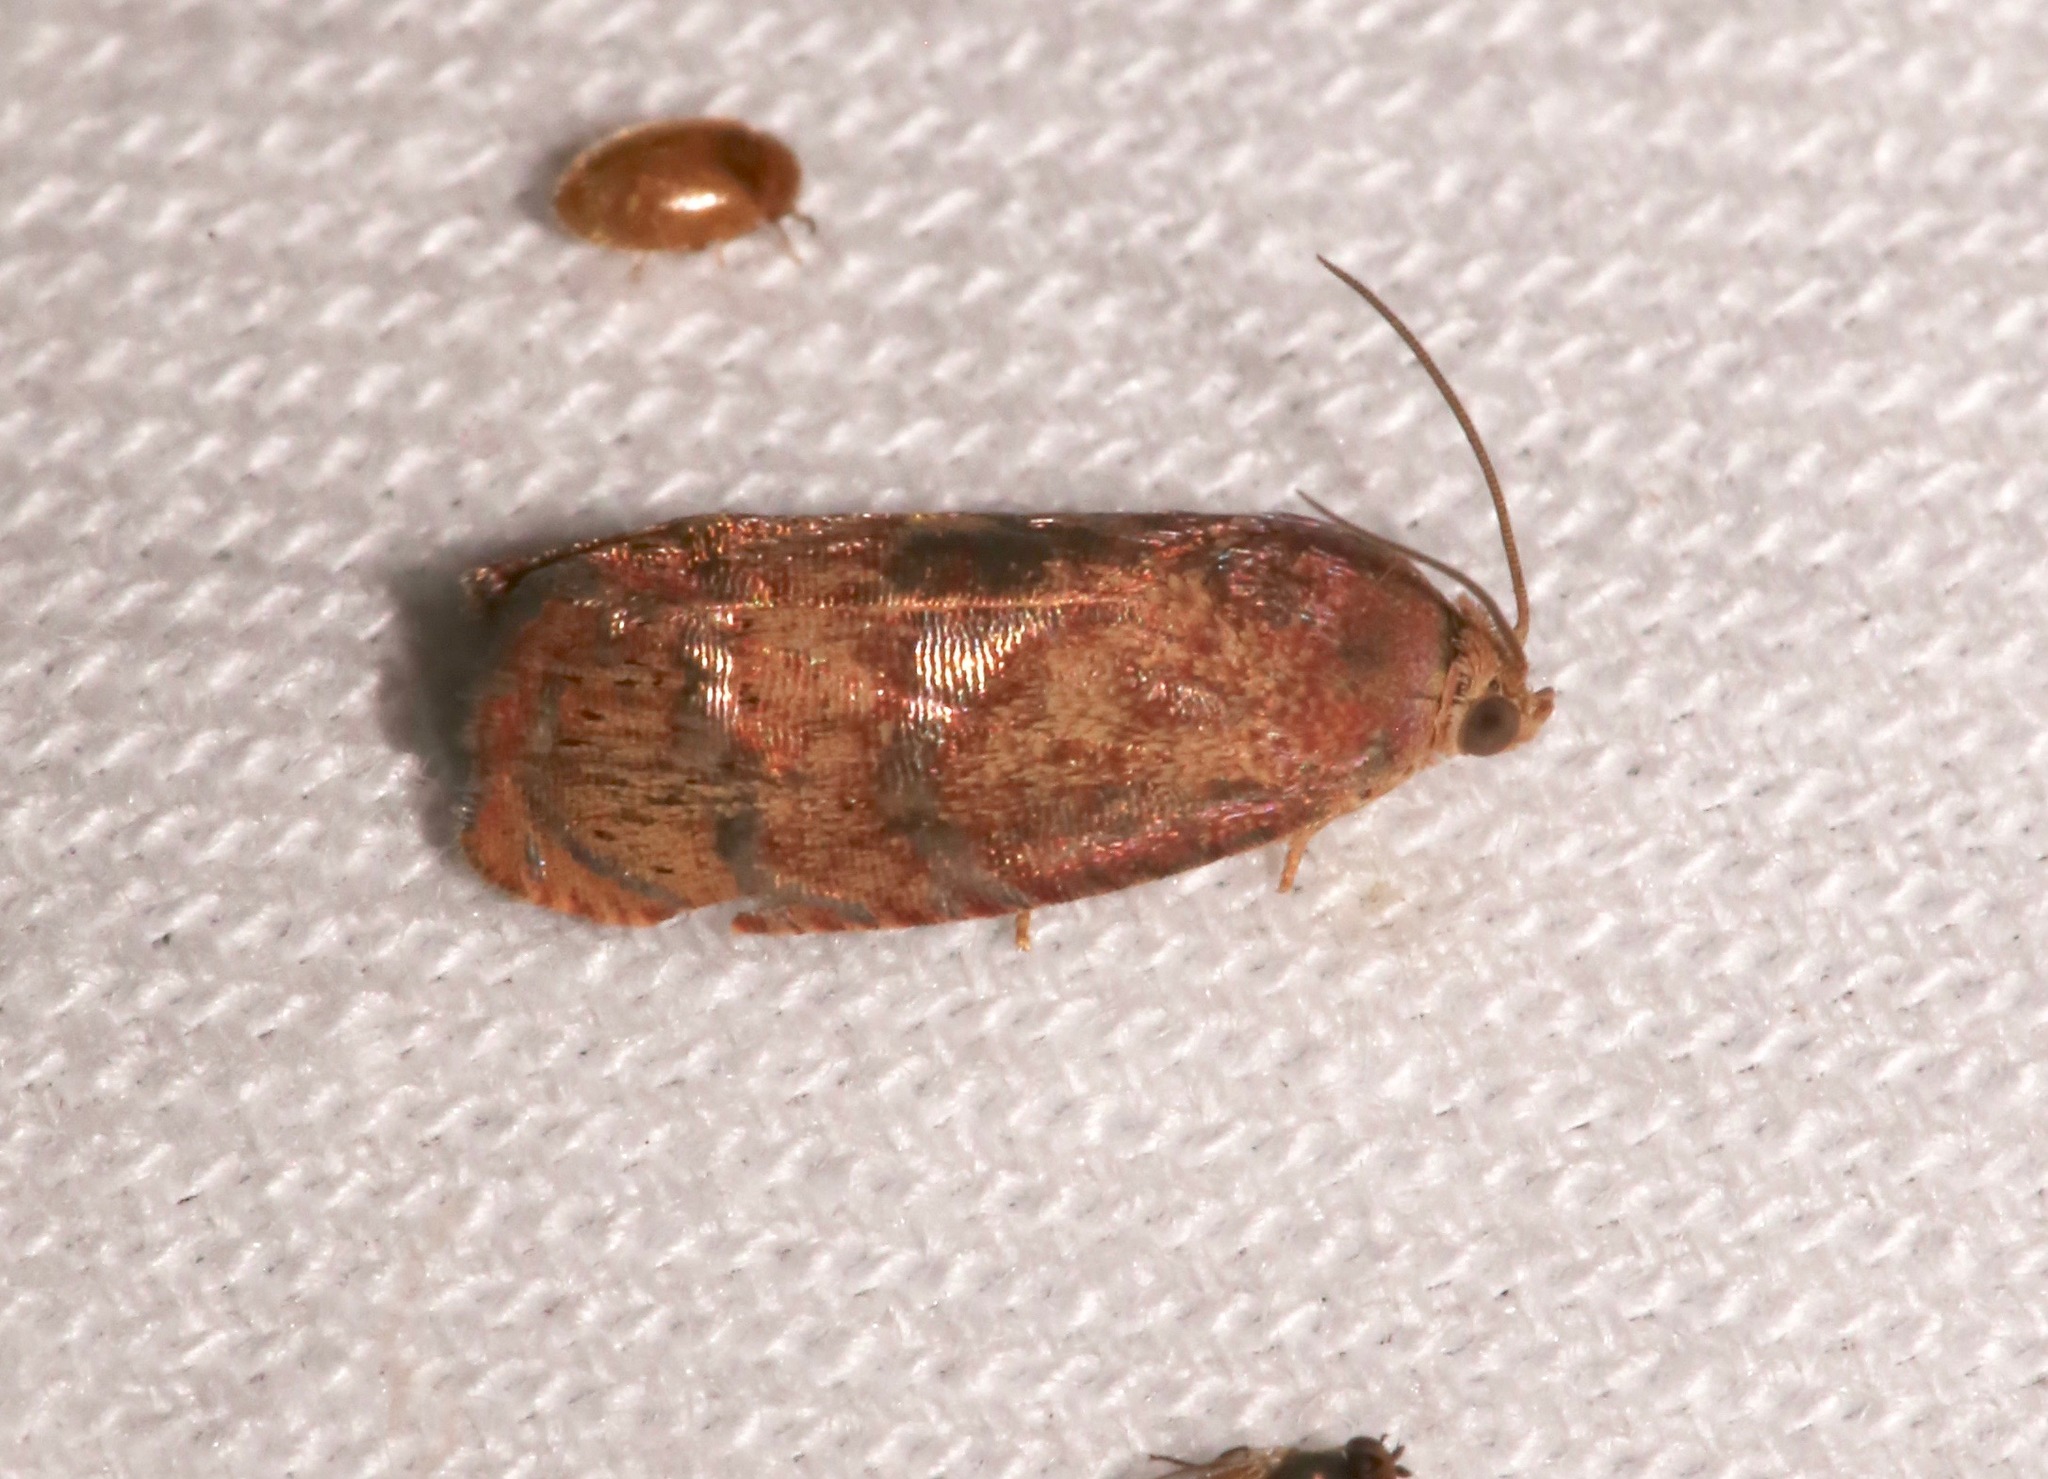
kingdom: Animalia
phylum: Arthropoda
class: Insecta
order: Lepidoptera
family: Tortricidae
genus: Cydia
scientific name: Cydia latiferreana
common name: Filbertworm moth
